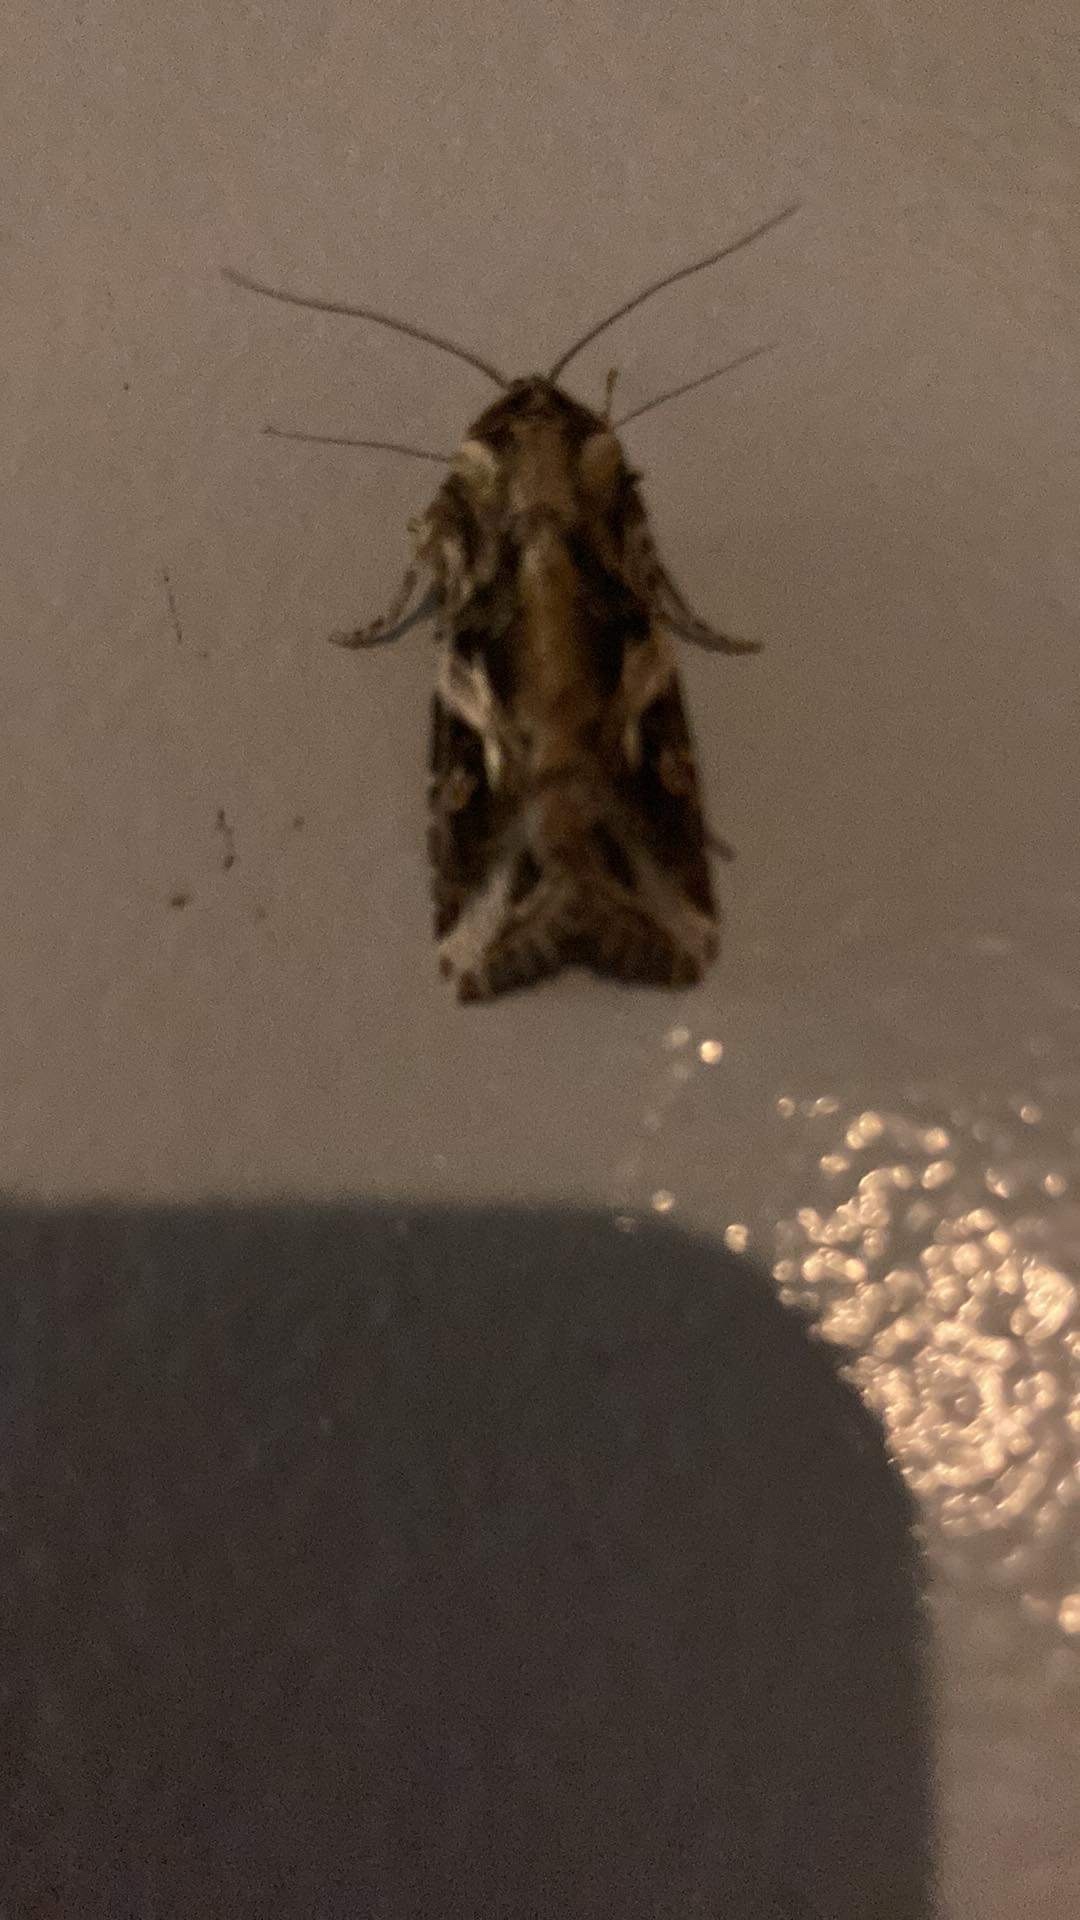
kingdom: Animalia
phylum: Arthropoda
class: Insecta
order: Lepidoptera
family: Noctuidae
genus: Spodoptera
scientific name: Spodoptera litura
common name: Asian cotton leafworm
